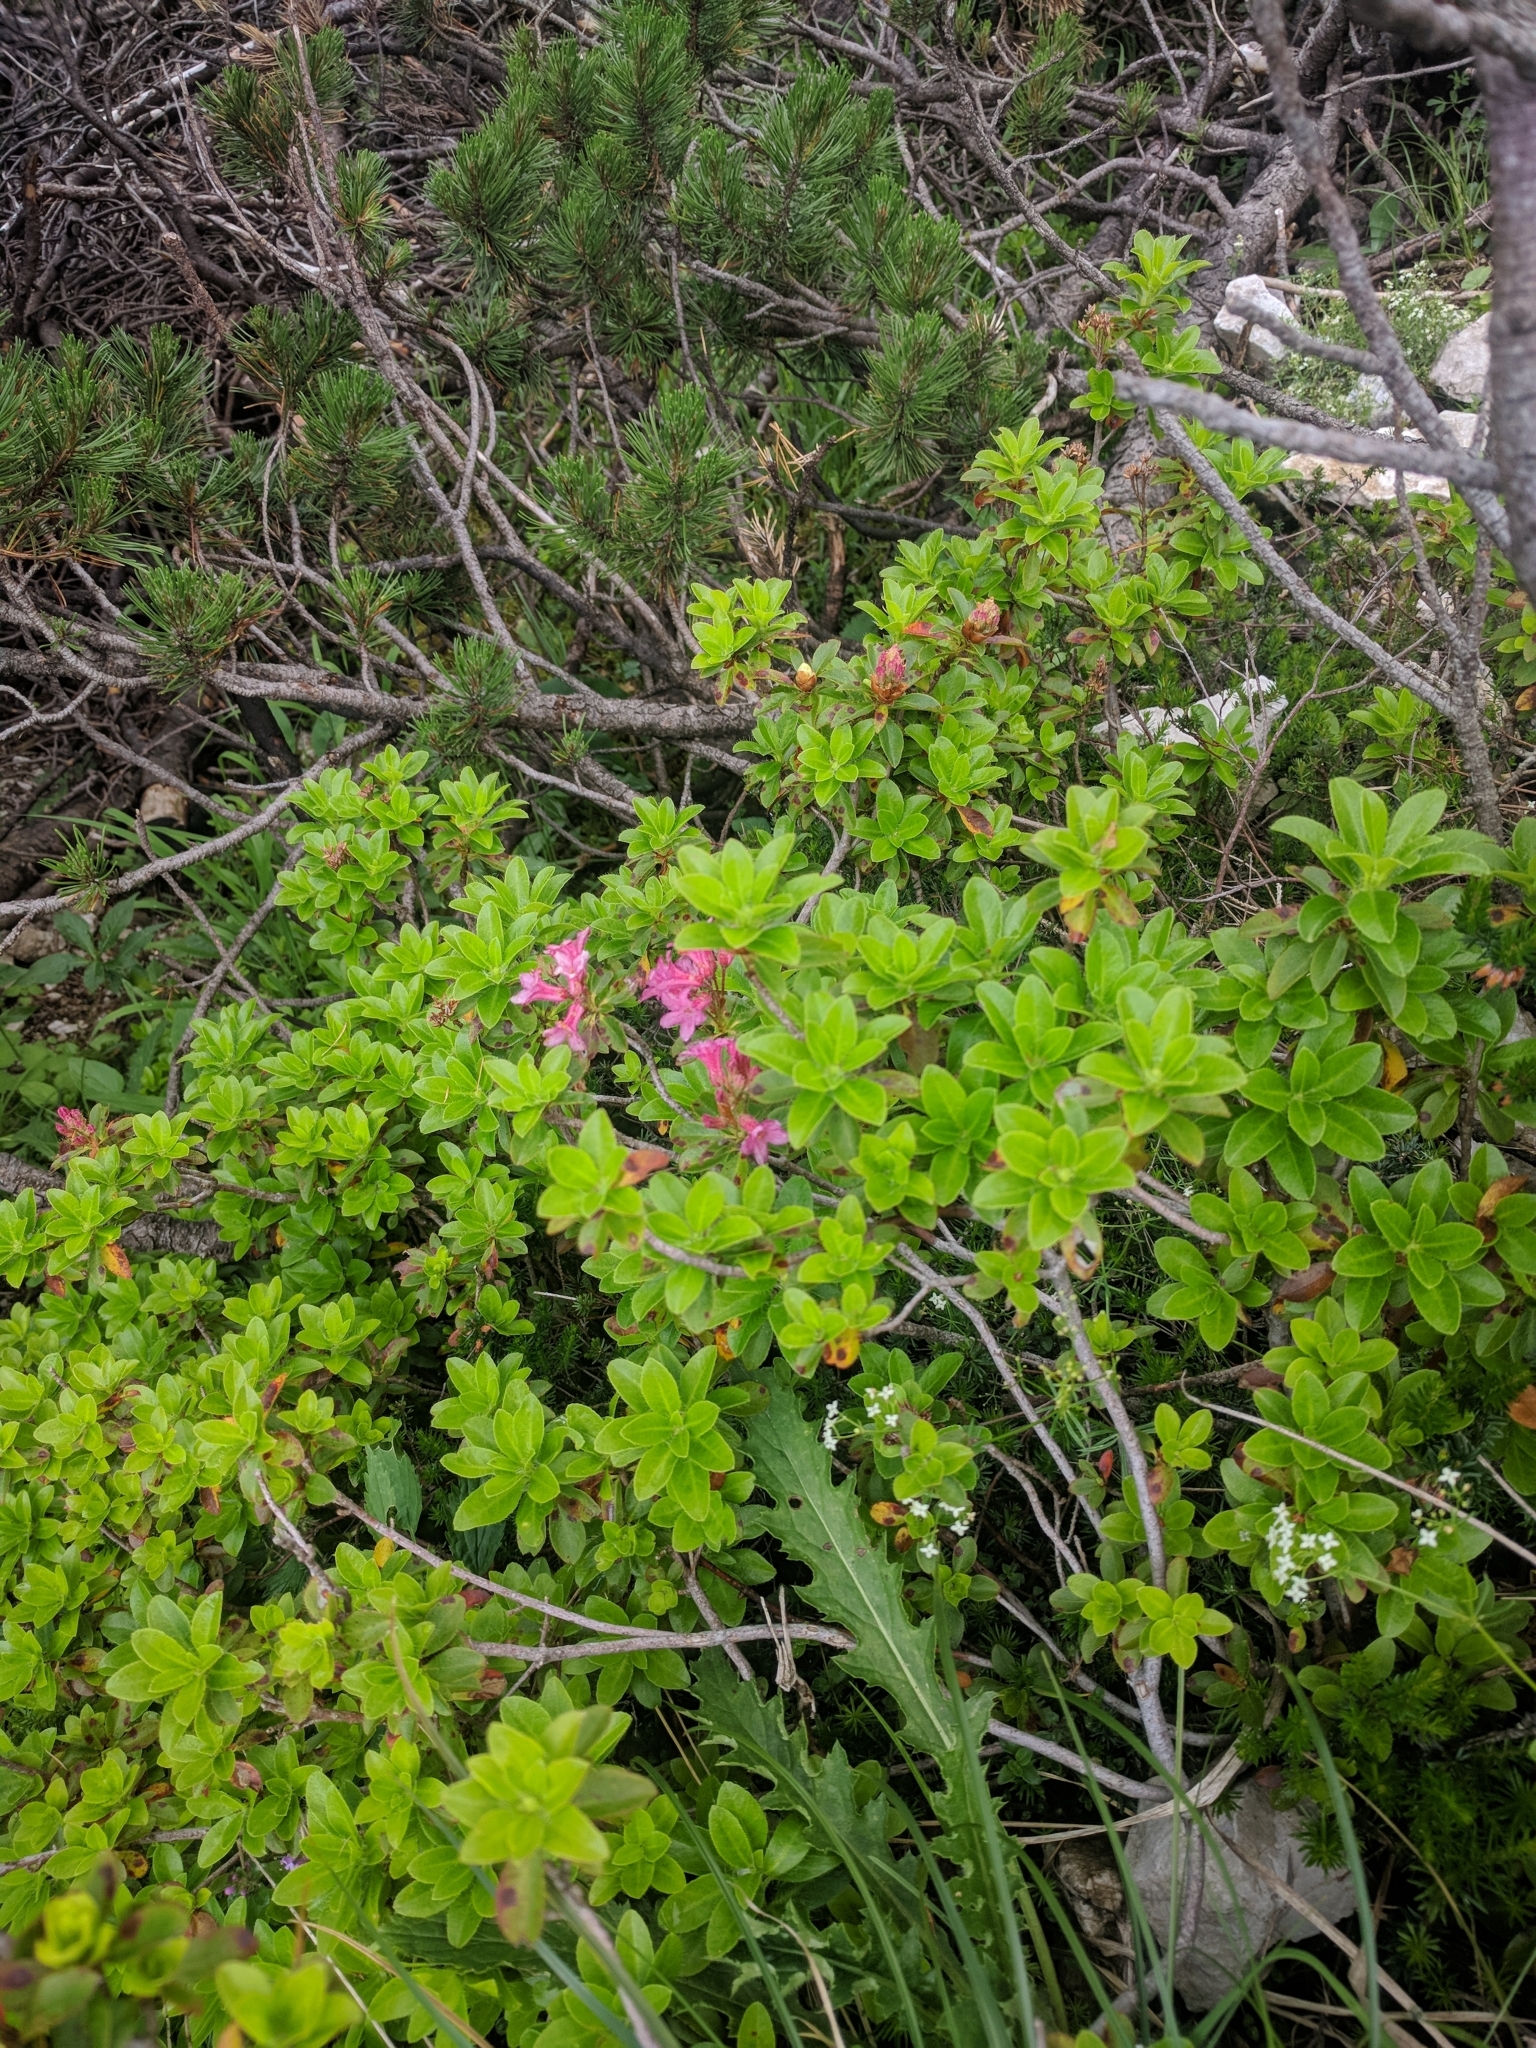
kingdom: Plantae
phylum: Tracheophyta
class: Magnoliopsida
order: Ericales
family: Ericaceae
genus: Rhododendron
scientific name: Rhododendron hirsutum
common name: Hairy alpenrose
